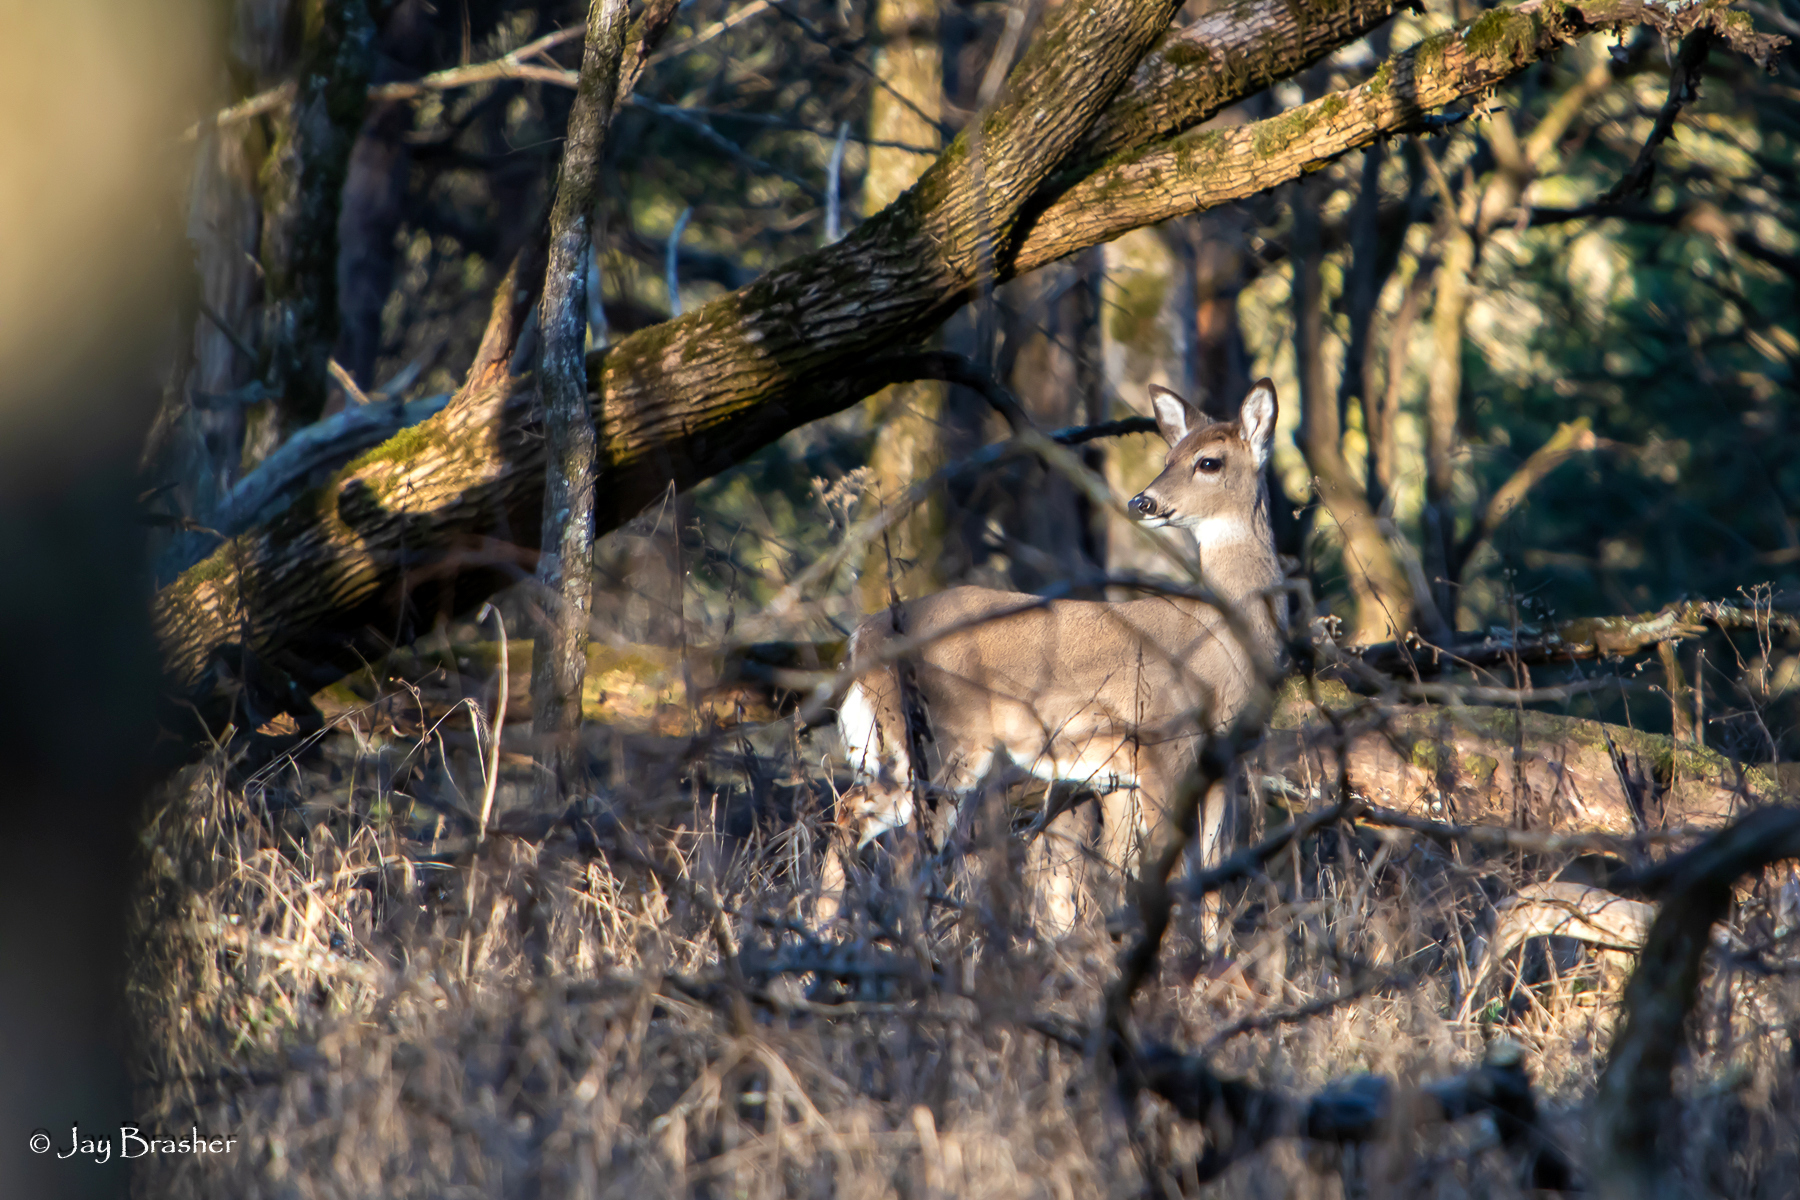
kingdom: Animalia
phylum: Chordata
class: Mammalia
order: Artiodactyla
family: Cervidae
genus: Odocoileus
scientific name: Odocoileus virginianus
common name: White-tailed deer
